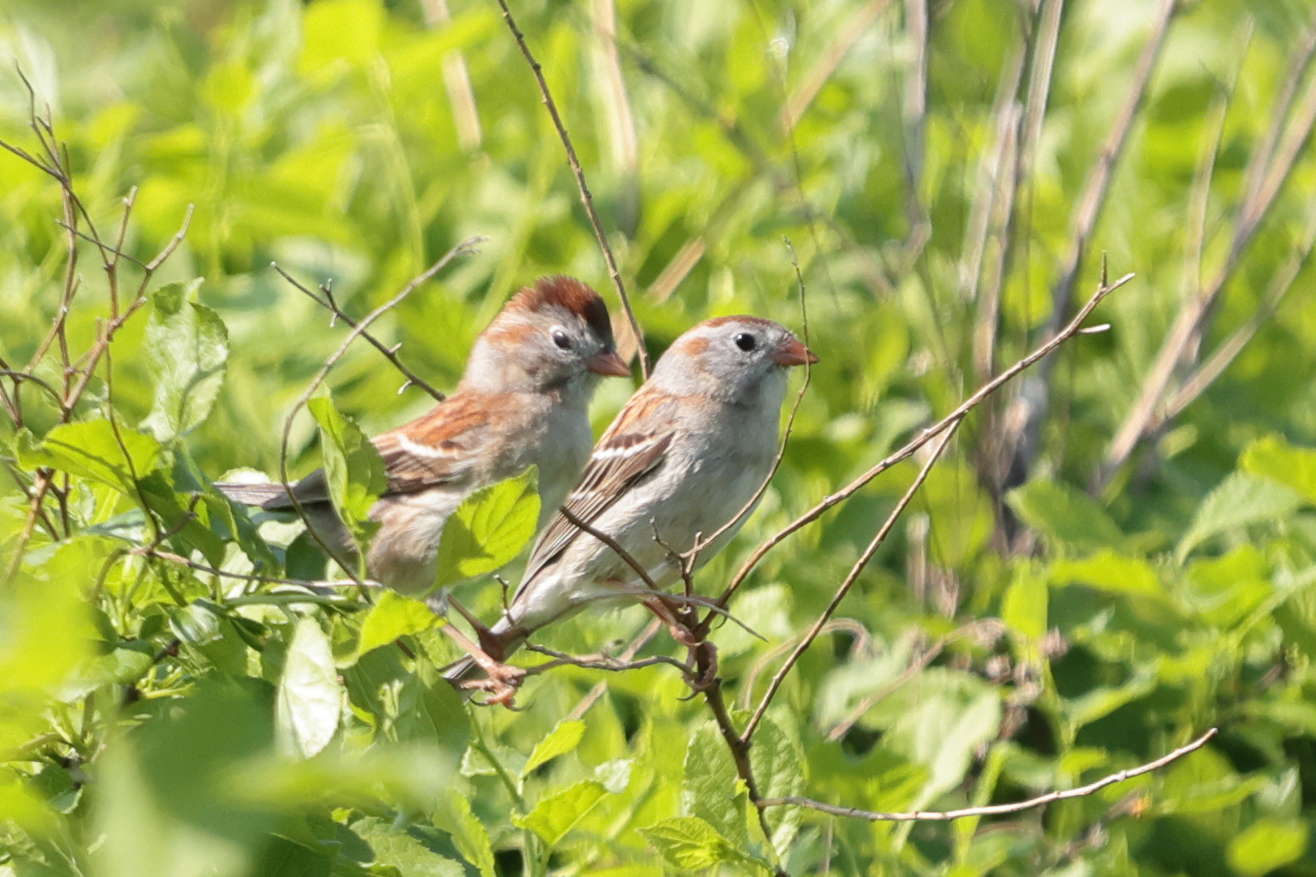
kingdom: Animalia
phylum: Chordata
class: Aves
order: Passeriformes
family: Passerellidae
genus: Spizella
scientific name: Spizella pusilla
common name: Field sparrow
